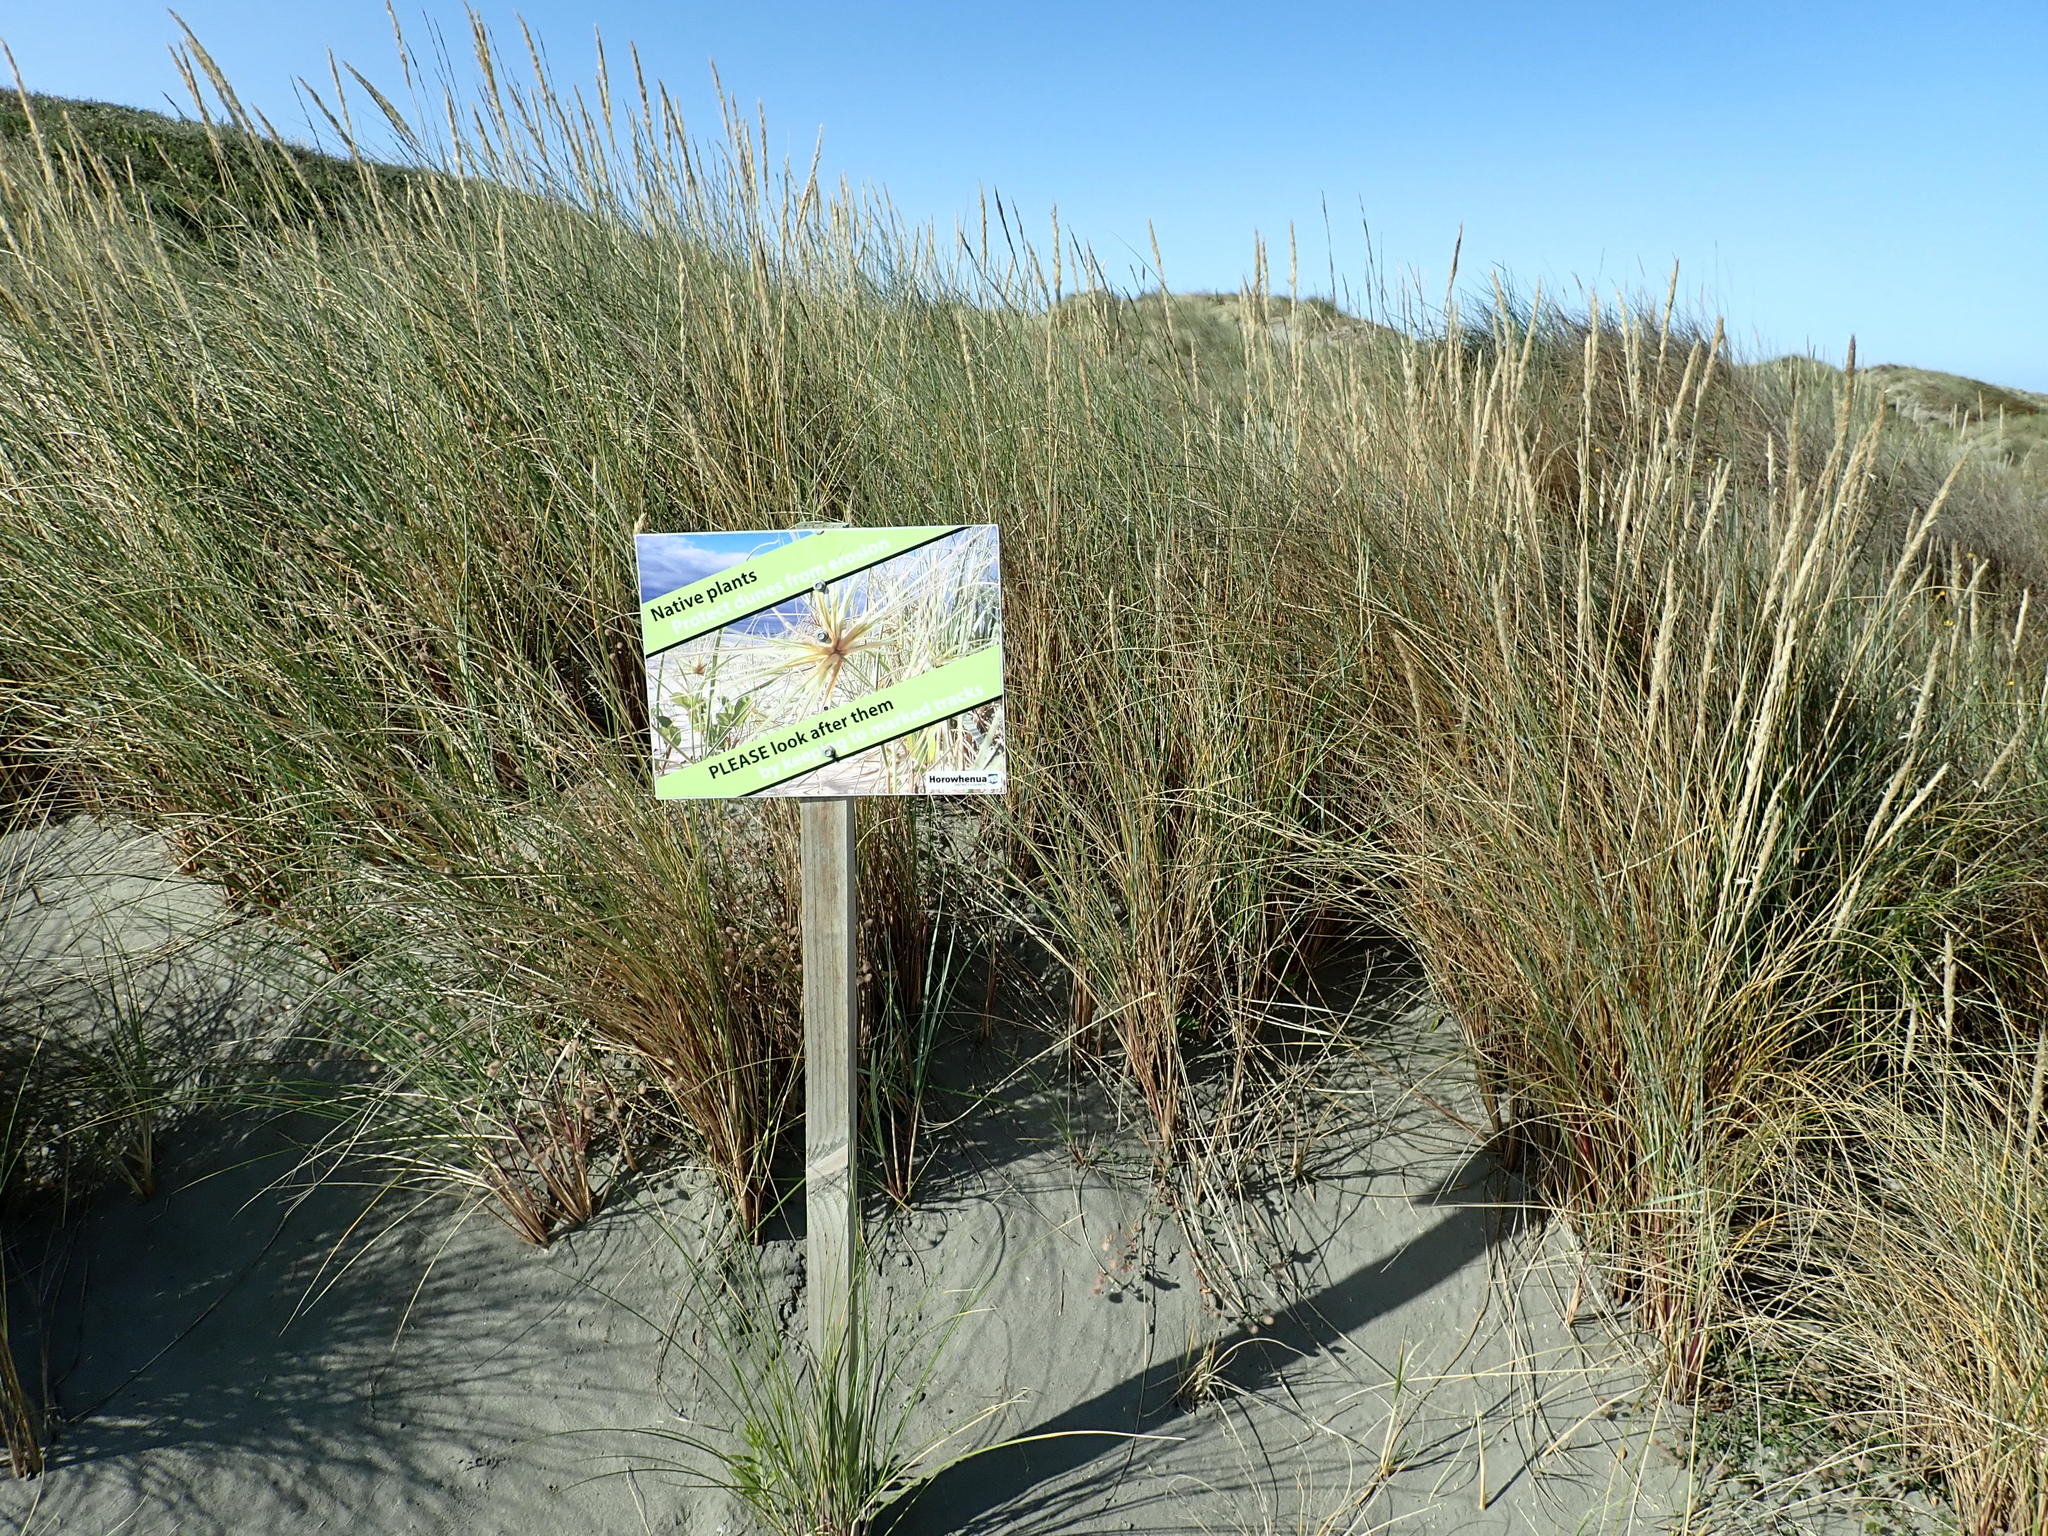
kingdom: Plantae
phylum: Tracheophyta
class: Liliopsida
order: Poales
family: Poaceae
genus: Calamagrostis
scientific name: Calamagrostis arenaria
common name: European beachgrass
